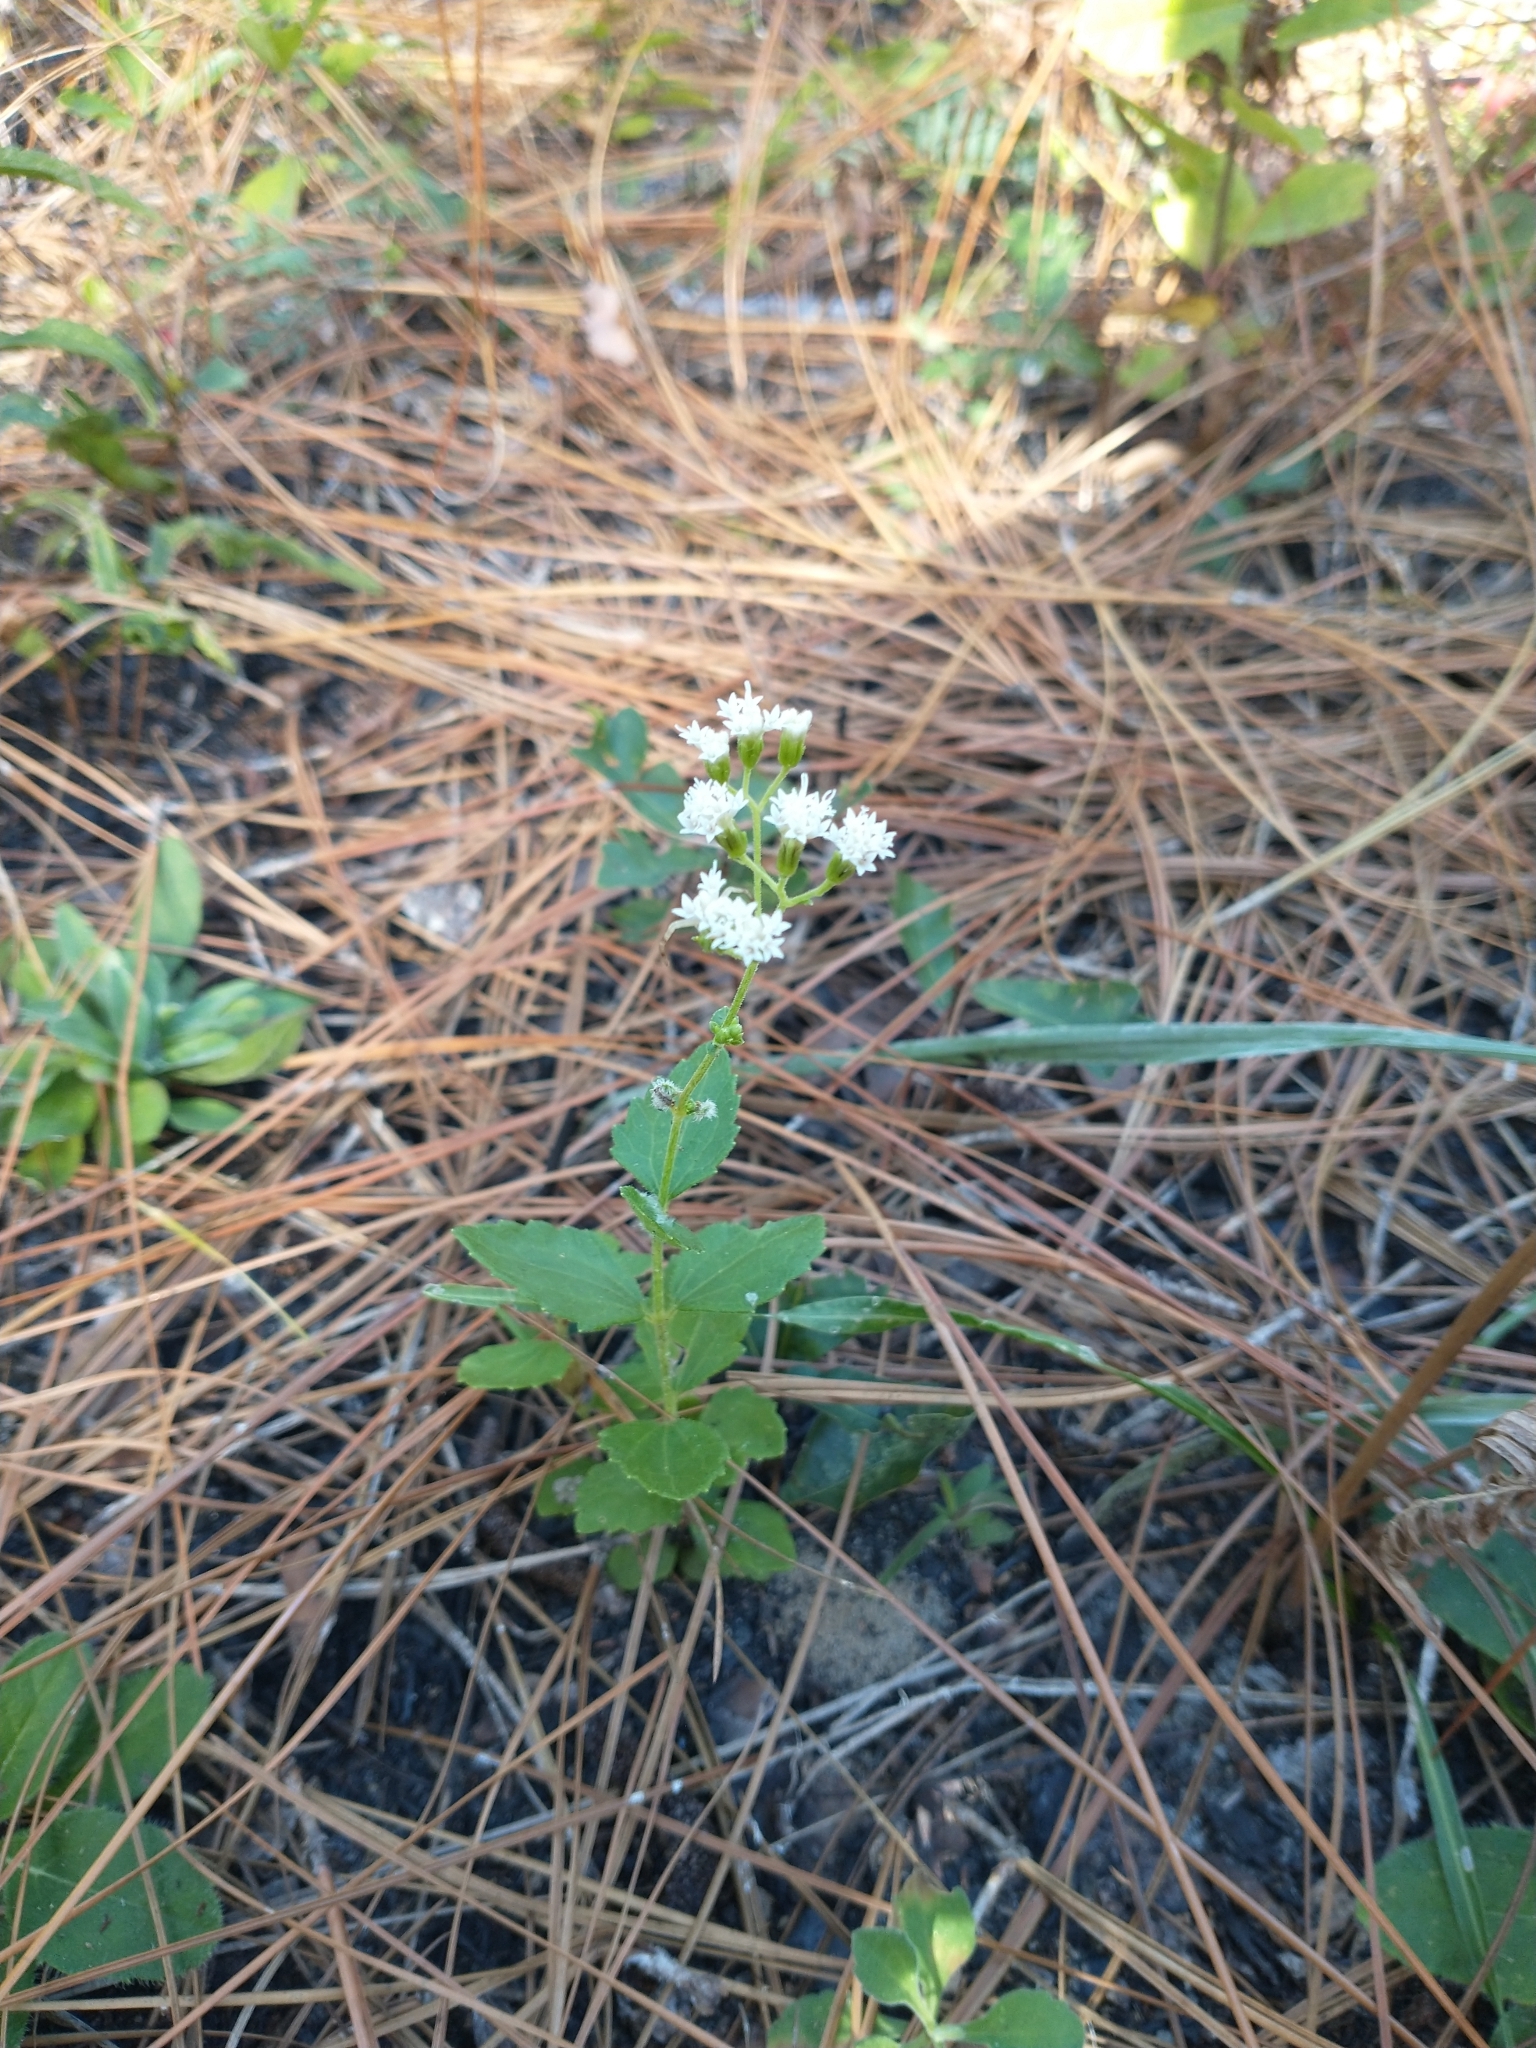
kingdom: Plantae
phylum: Tracheophyta
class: Magnoliopsida
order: Asterales
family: Asteraceae
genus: Ageratina
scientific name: Ageratina aromatica
